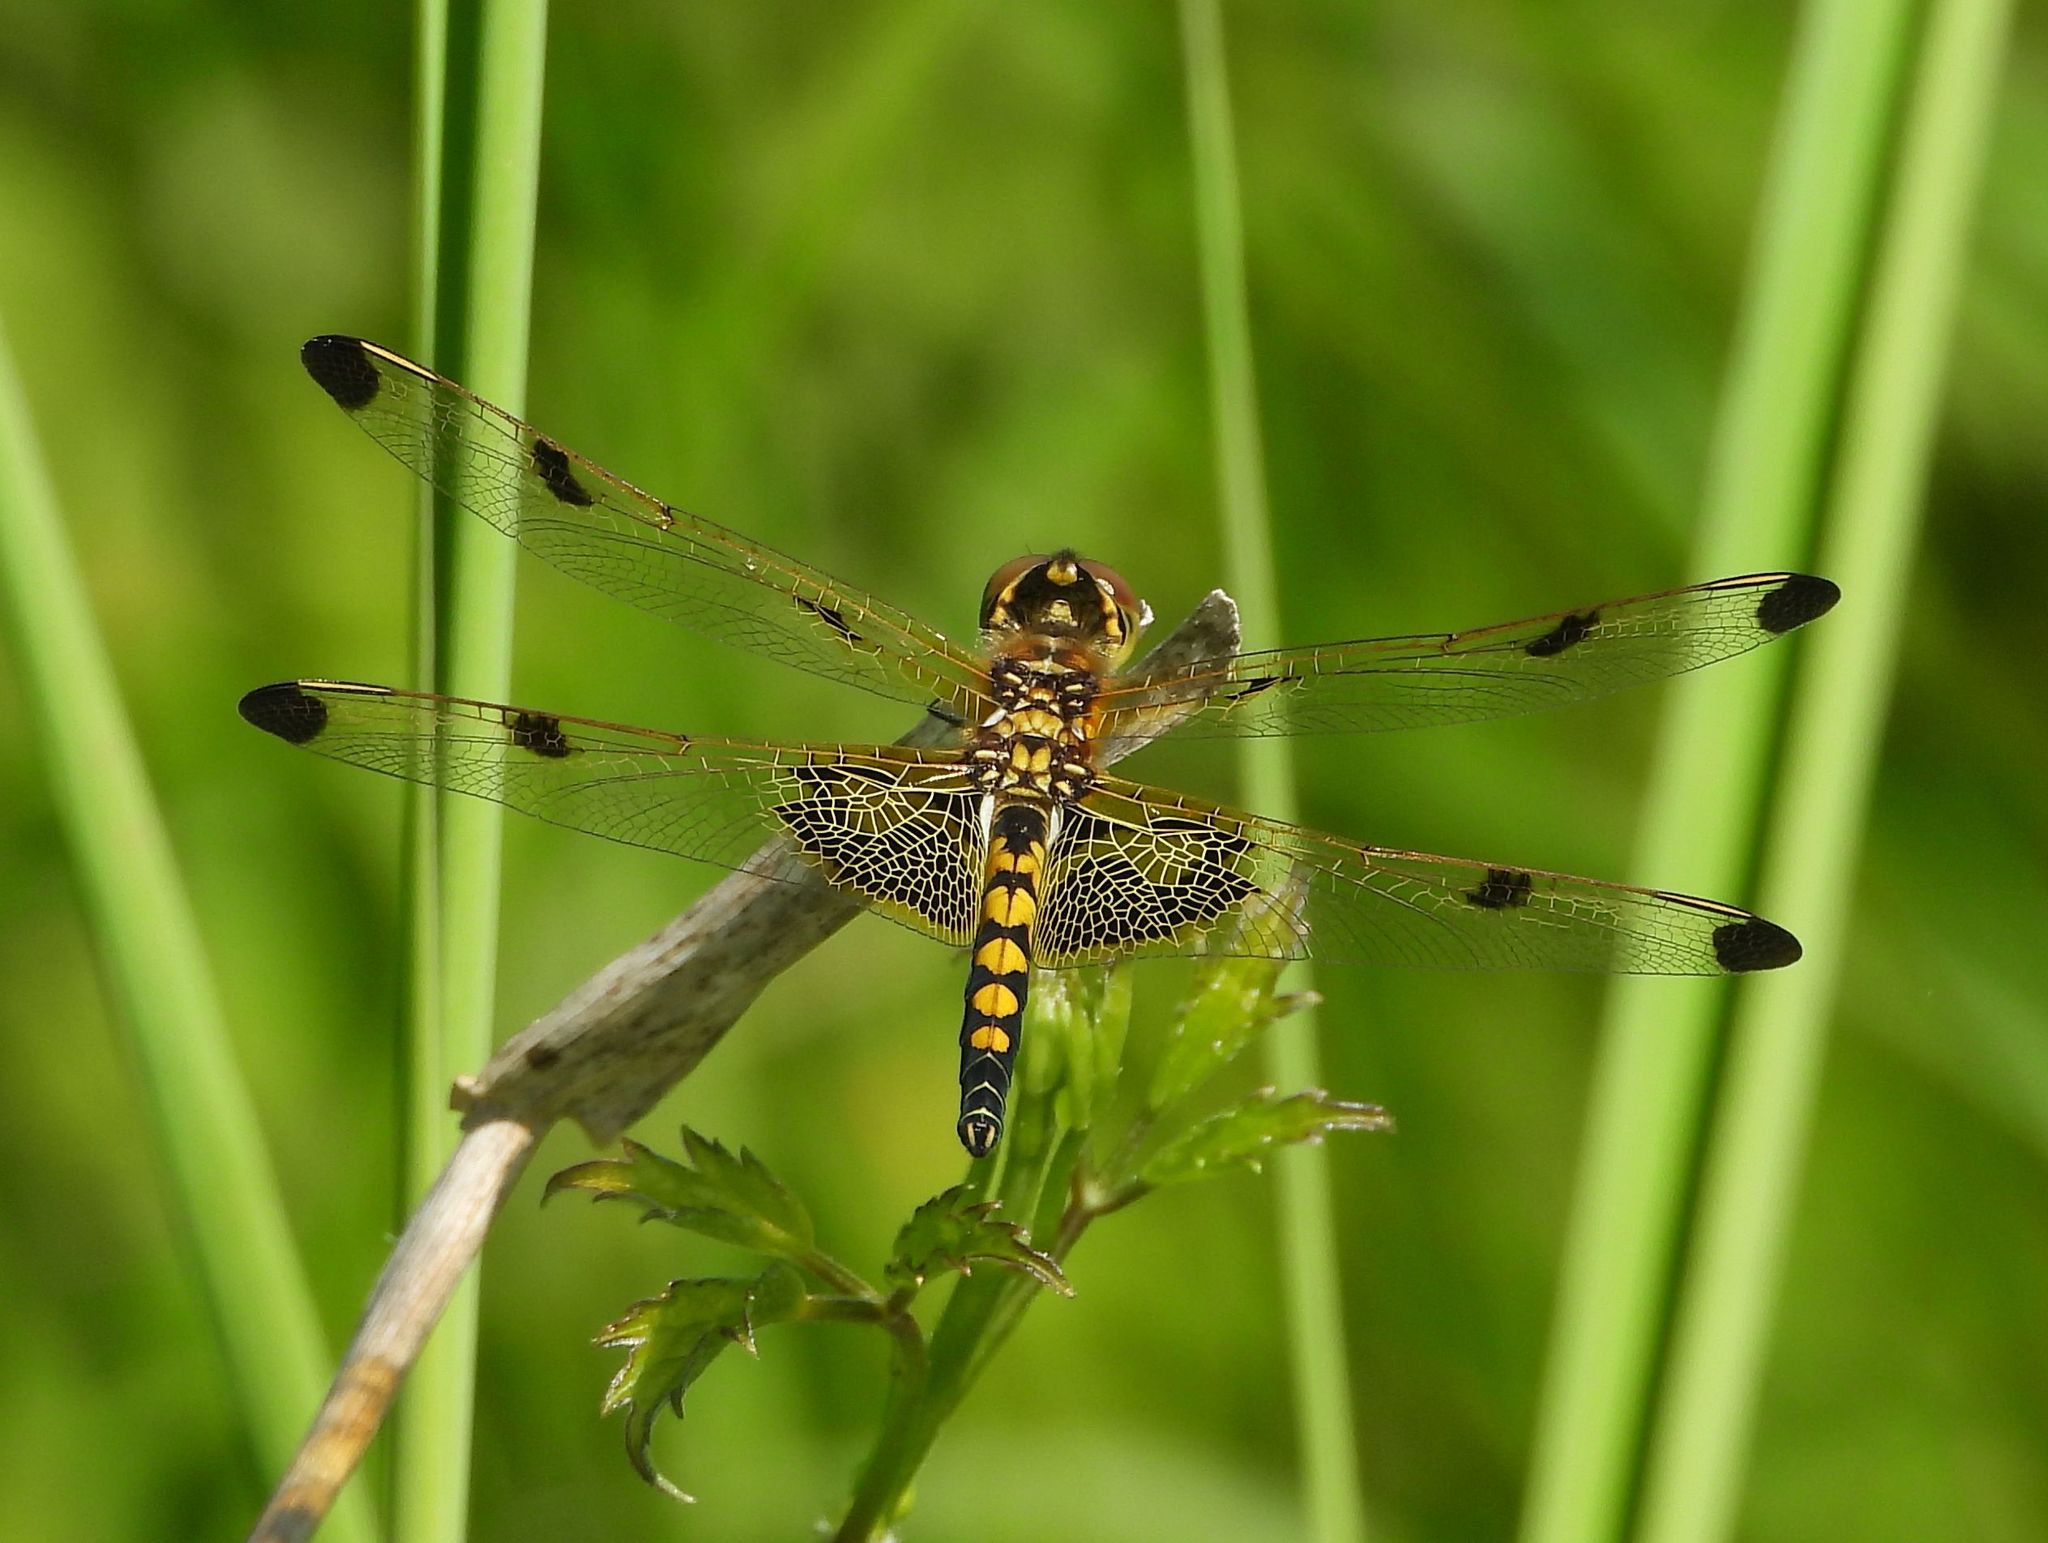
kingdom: Animalia
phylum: Arthropoda
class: Insecta
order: Odonata
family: Libellulidae
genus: Celithemis
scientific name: Celithemis elisa
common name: Calico pennant
